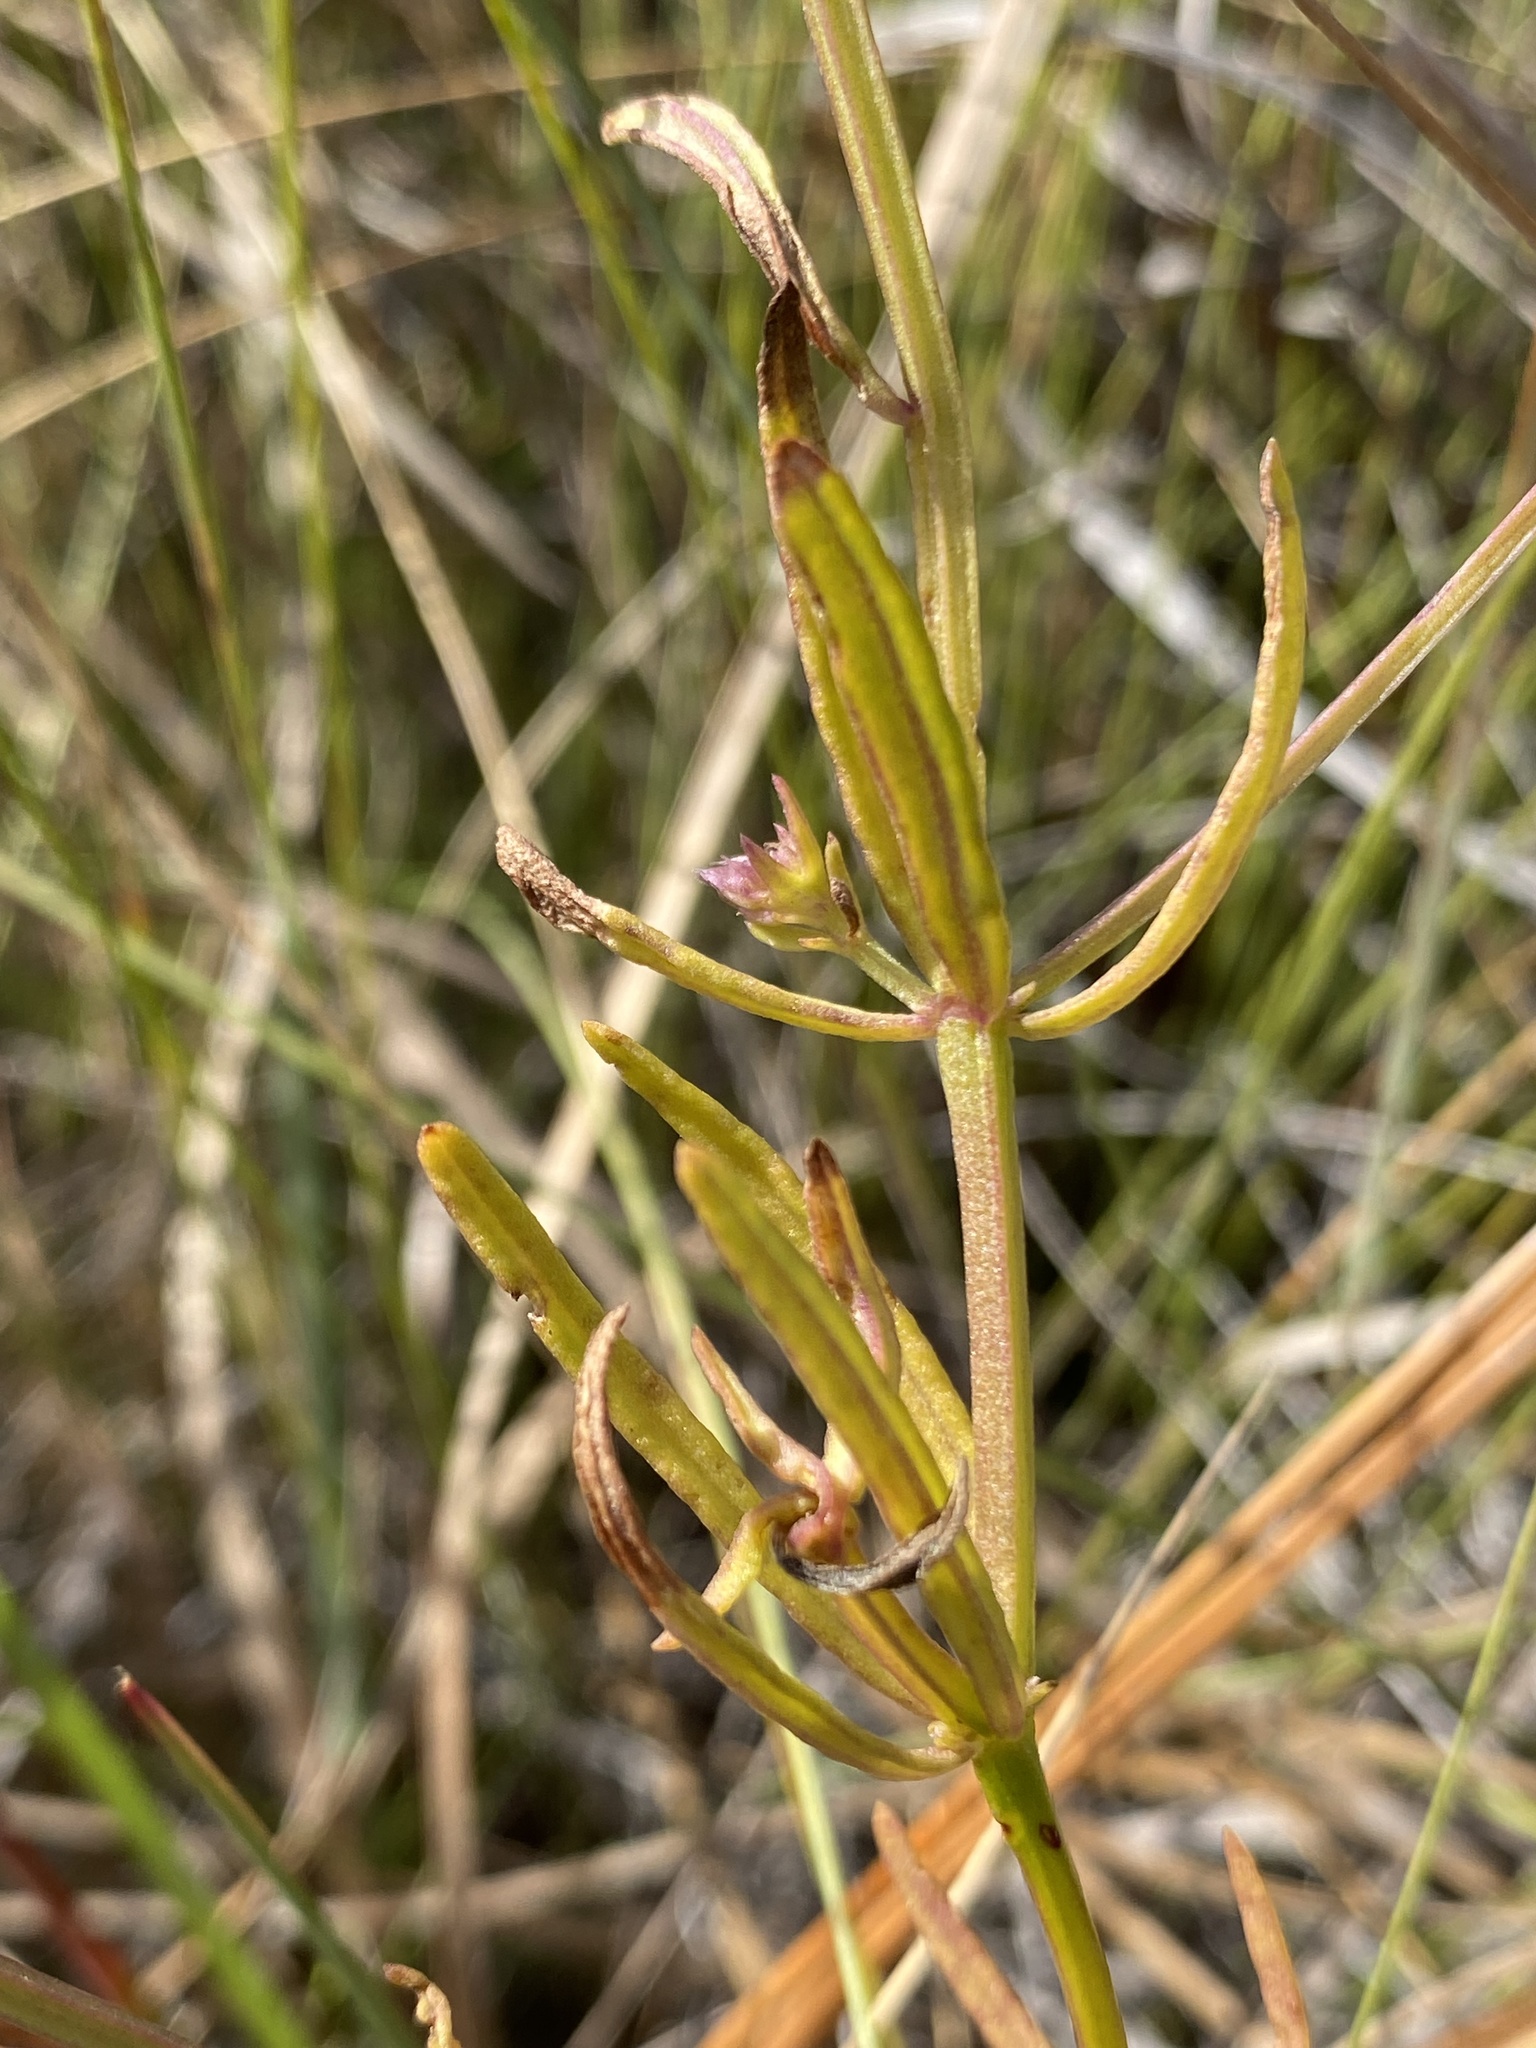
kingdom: Plantae
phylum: Tracheophyta
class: Magnoliopsida
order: Fabales
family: Polygalaceae
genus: Polygala
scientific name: Polygala cruciata
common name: Drumheads
